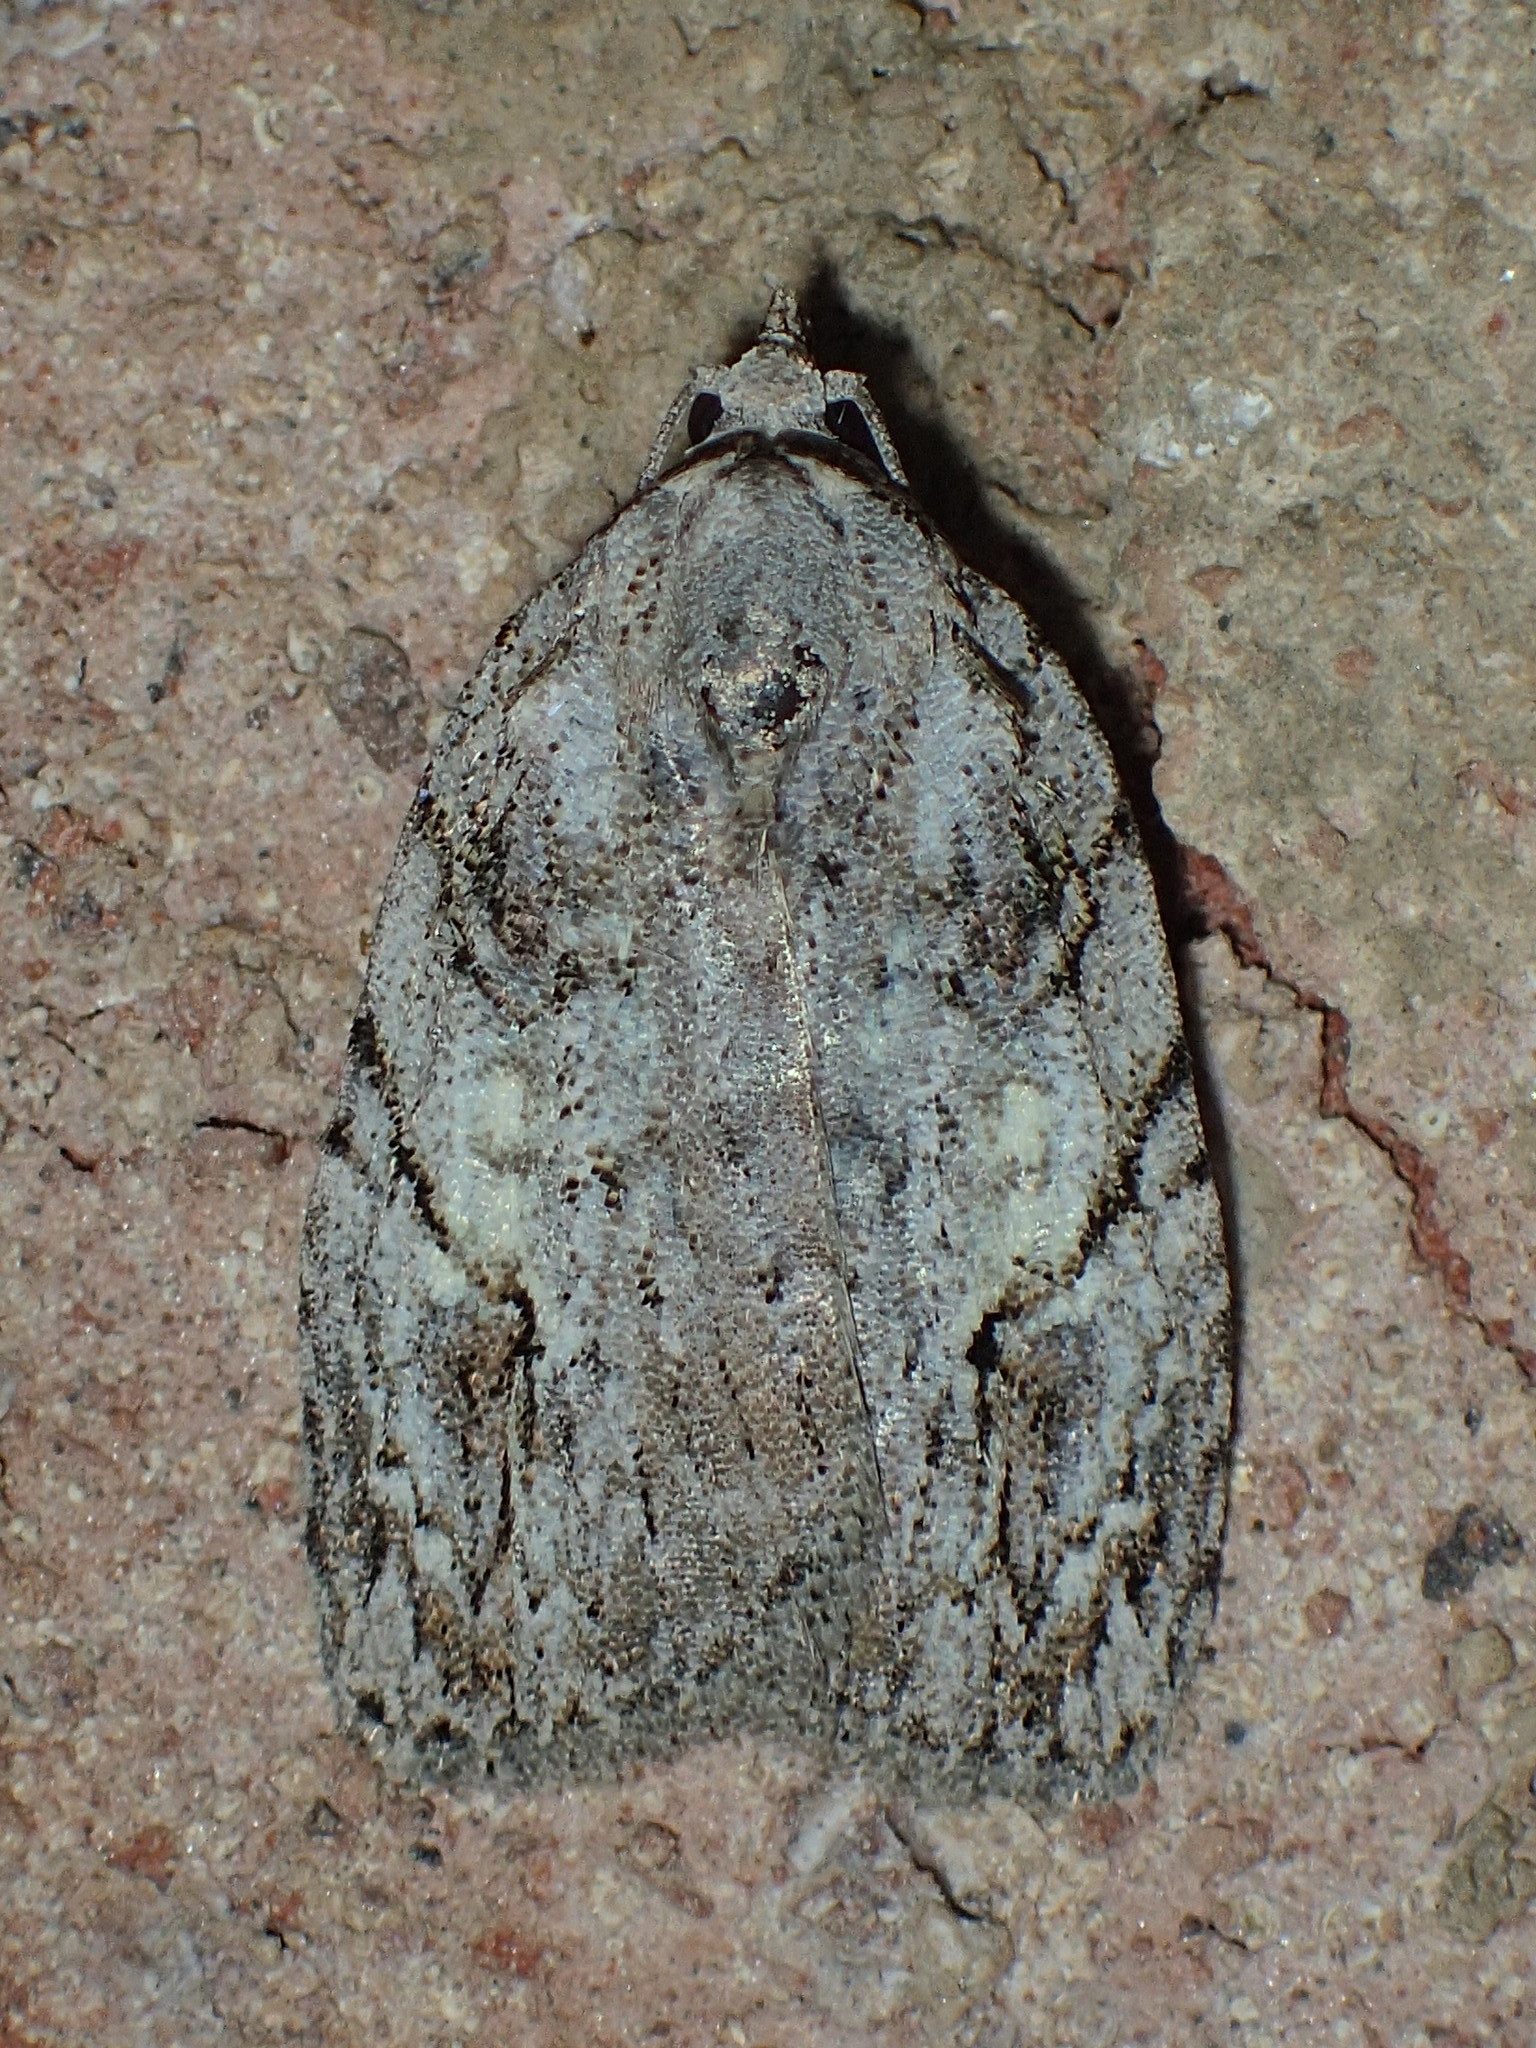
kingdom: Animalia
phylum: Arthropoda
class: Insecta
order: Lepidoptera
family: Noctuidae
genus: Balsa
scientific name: Balsa labecula
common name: White-blotched balsa moth
